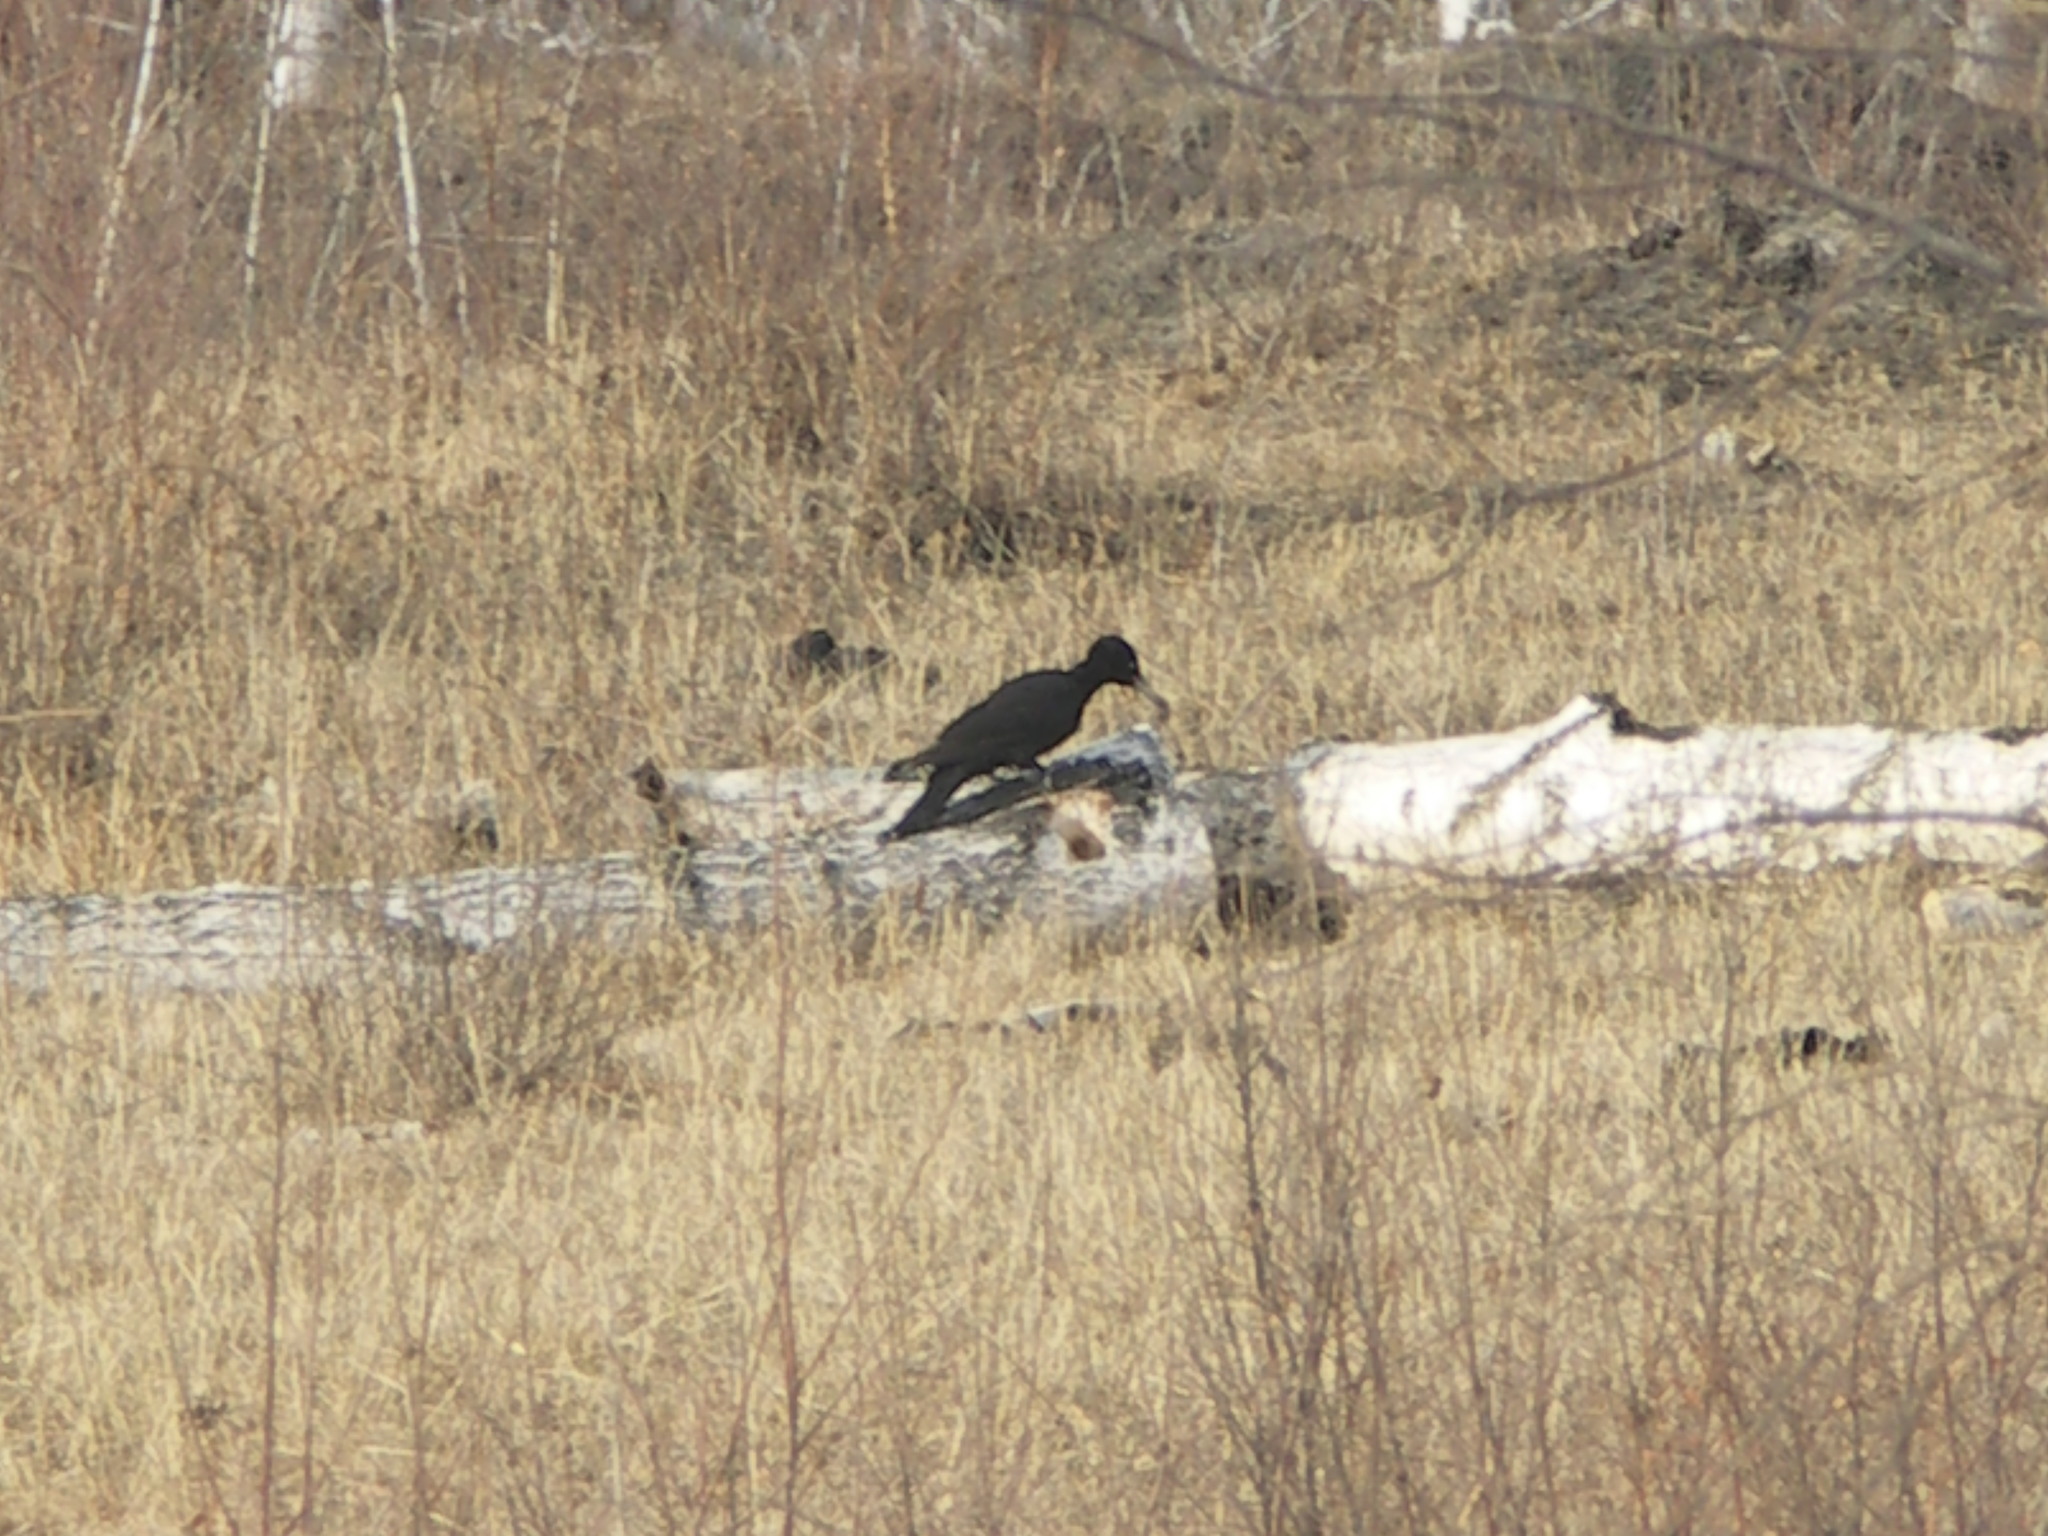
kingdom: Animalia
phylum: Chordata
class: Aves
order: Piciformes
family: Picidae
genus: Dryocopus
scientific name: Dryocopus martius
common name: Black woodpecker
